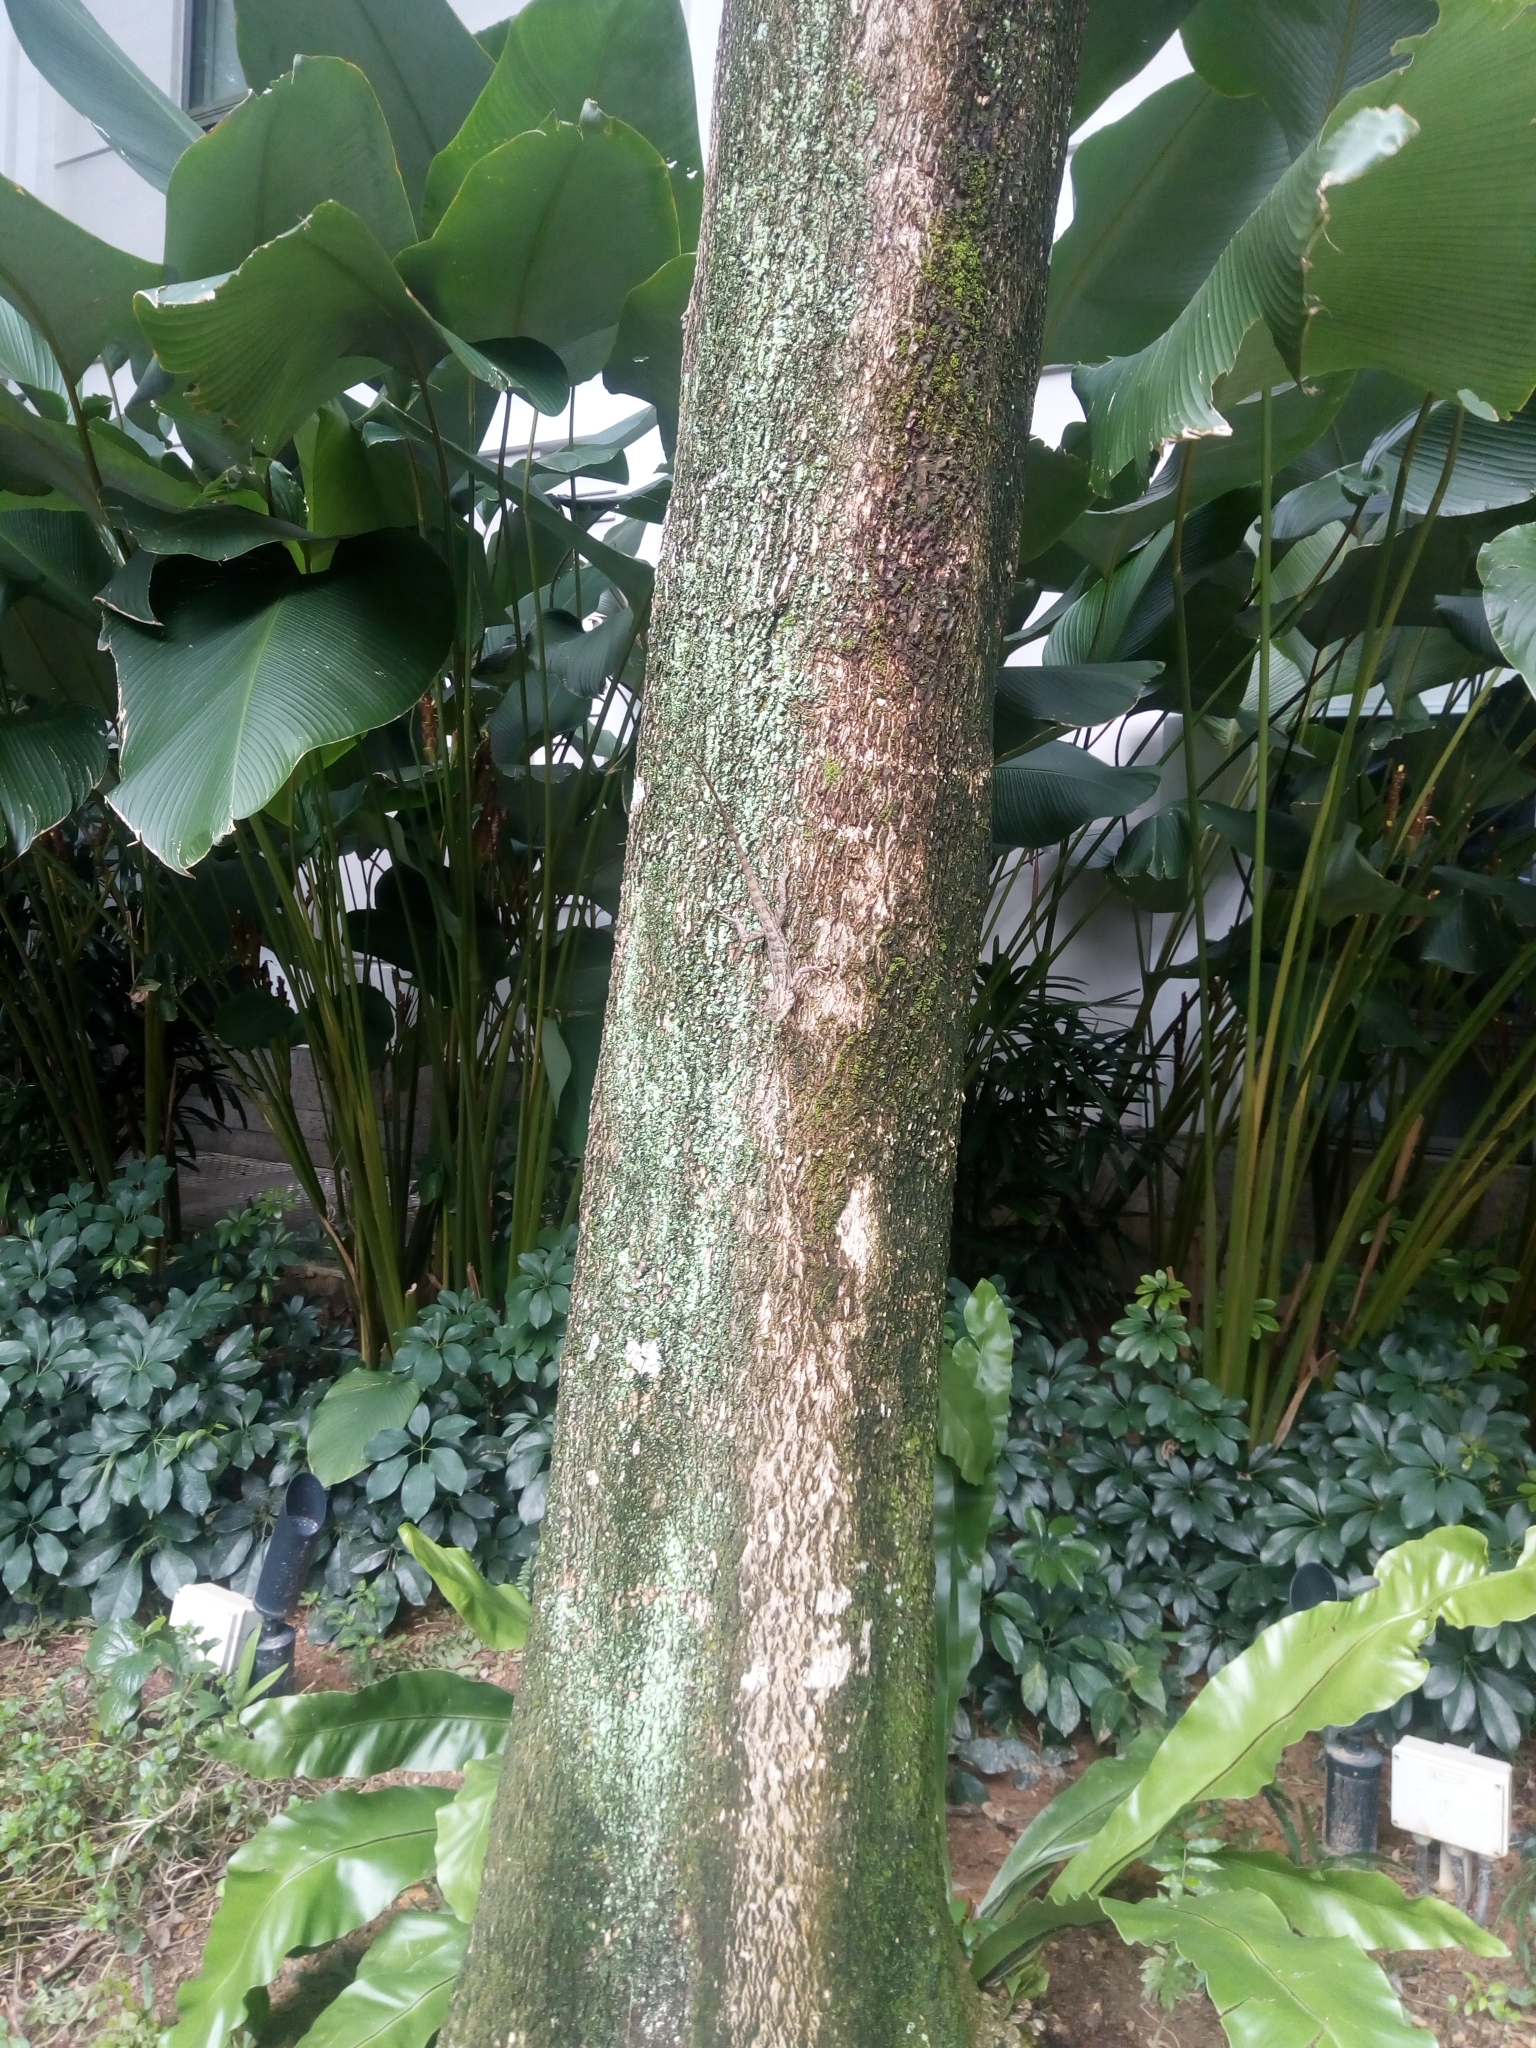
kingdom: Animalia
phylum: Chordata
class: Squamata
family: Agamidae
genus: Calotes
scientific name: Calotes versicolor
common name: Oriental garden lizard
